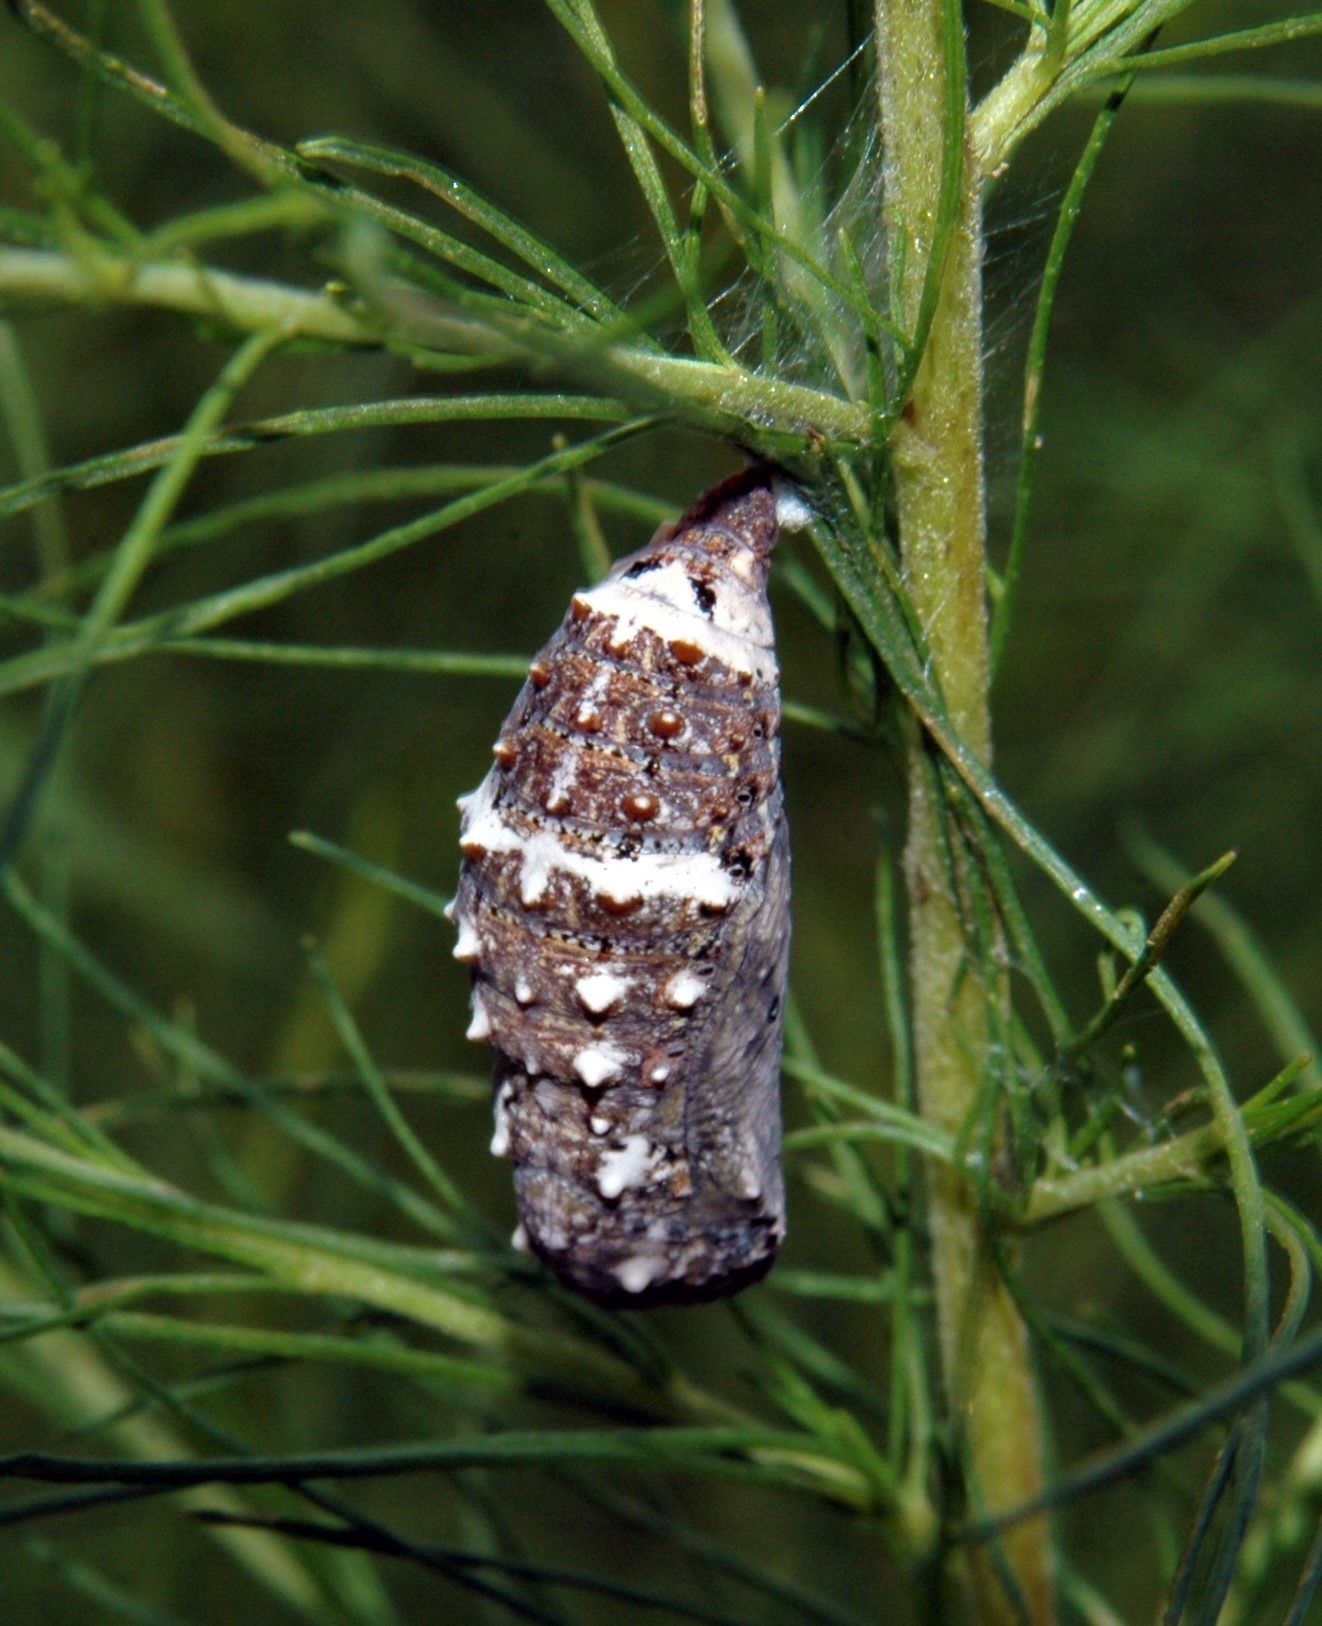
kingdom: Animalia
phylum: Arthropoda
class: Insecta
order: Lepidoptera
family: Nymphalidae
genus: Junonia
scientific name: Junonia coenia
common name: Common buckeye
